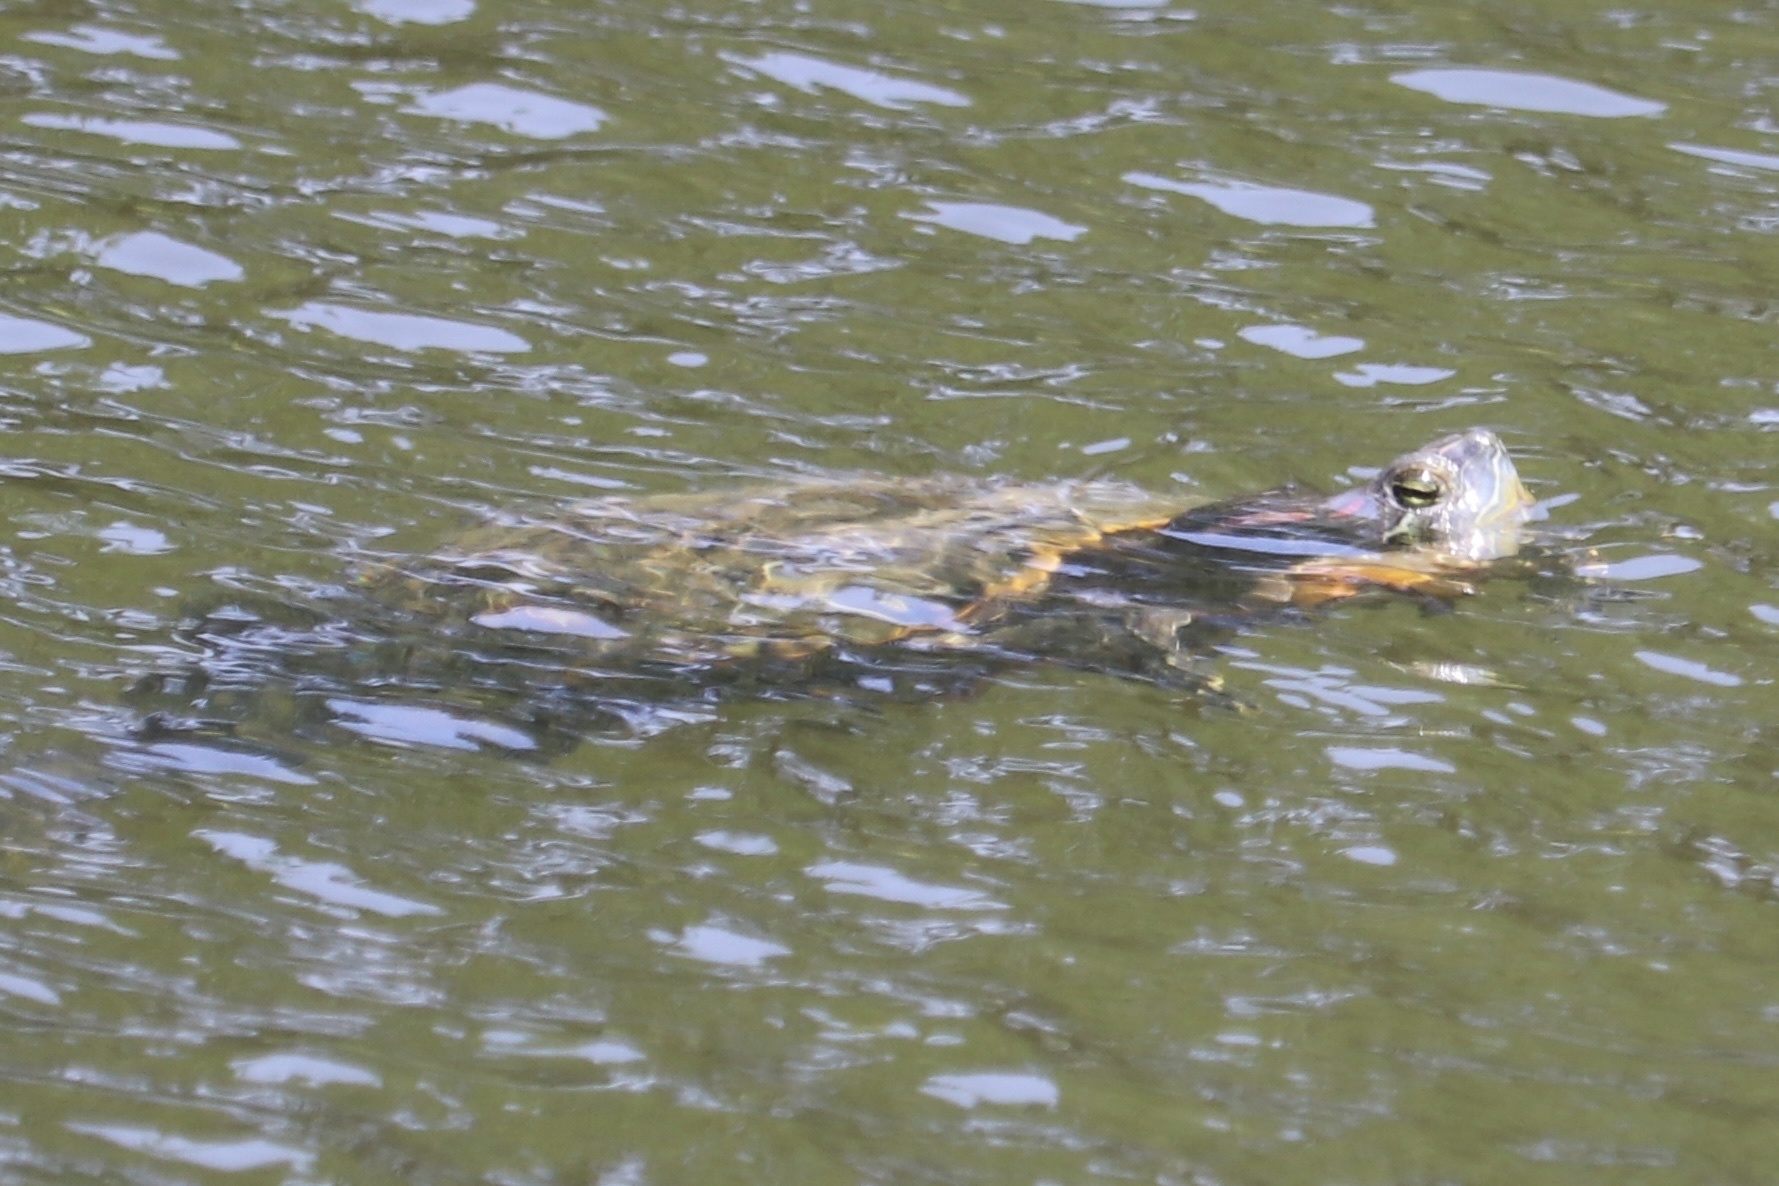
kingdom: Animalia
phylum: Chordata
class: Testudines
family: Emydidae
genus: Trachemys
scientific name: Trachemys scripta
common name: Slider
